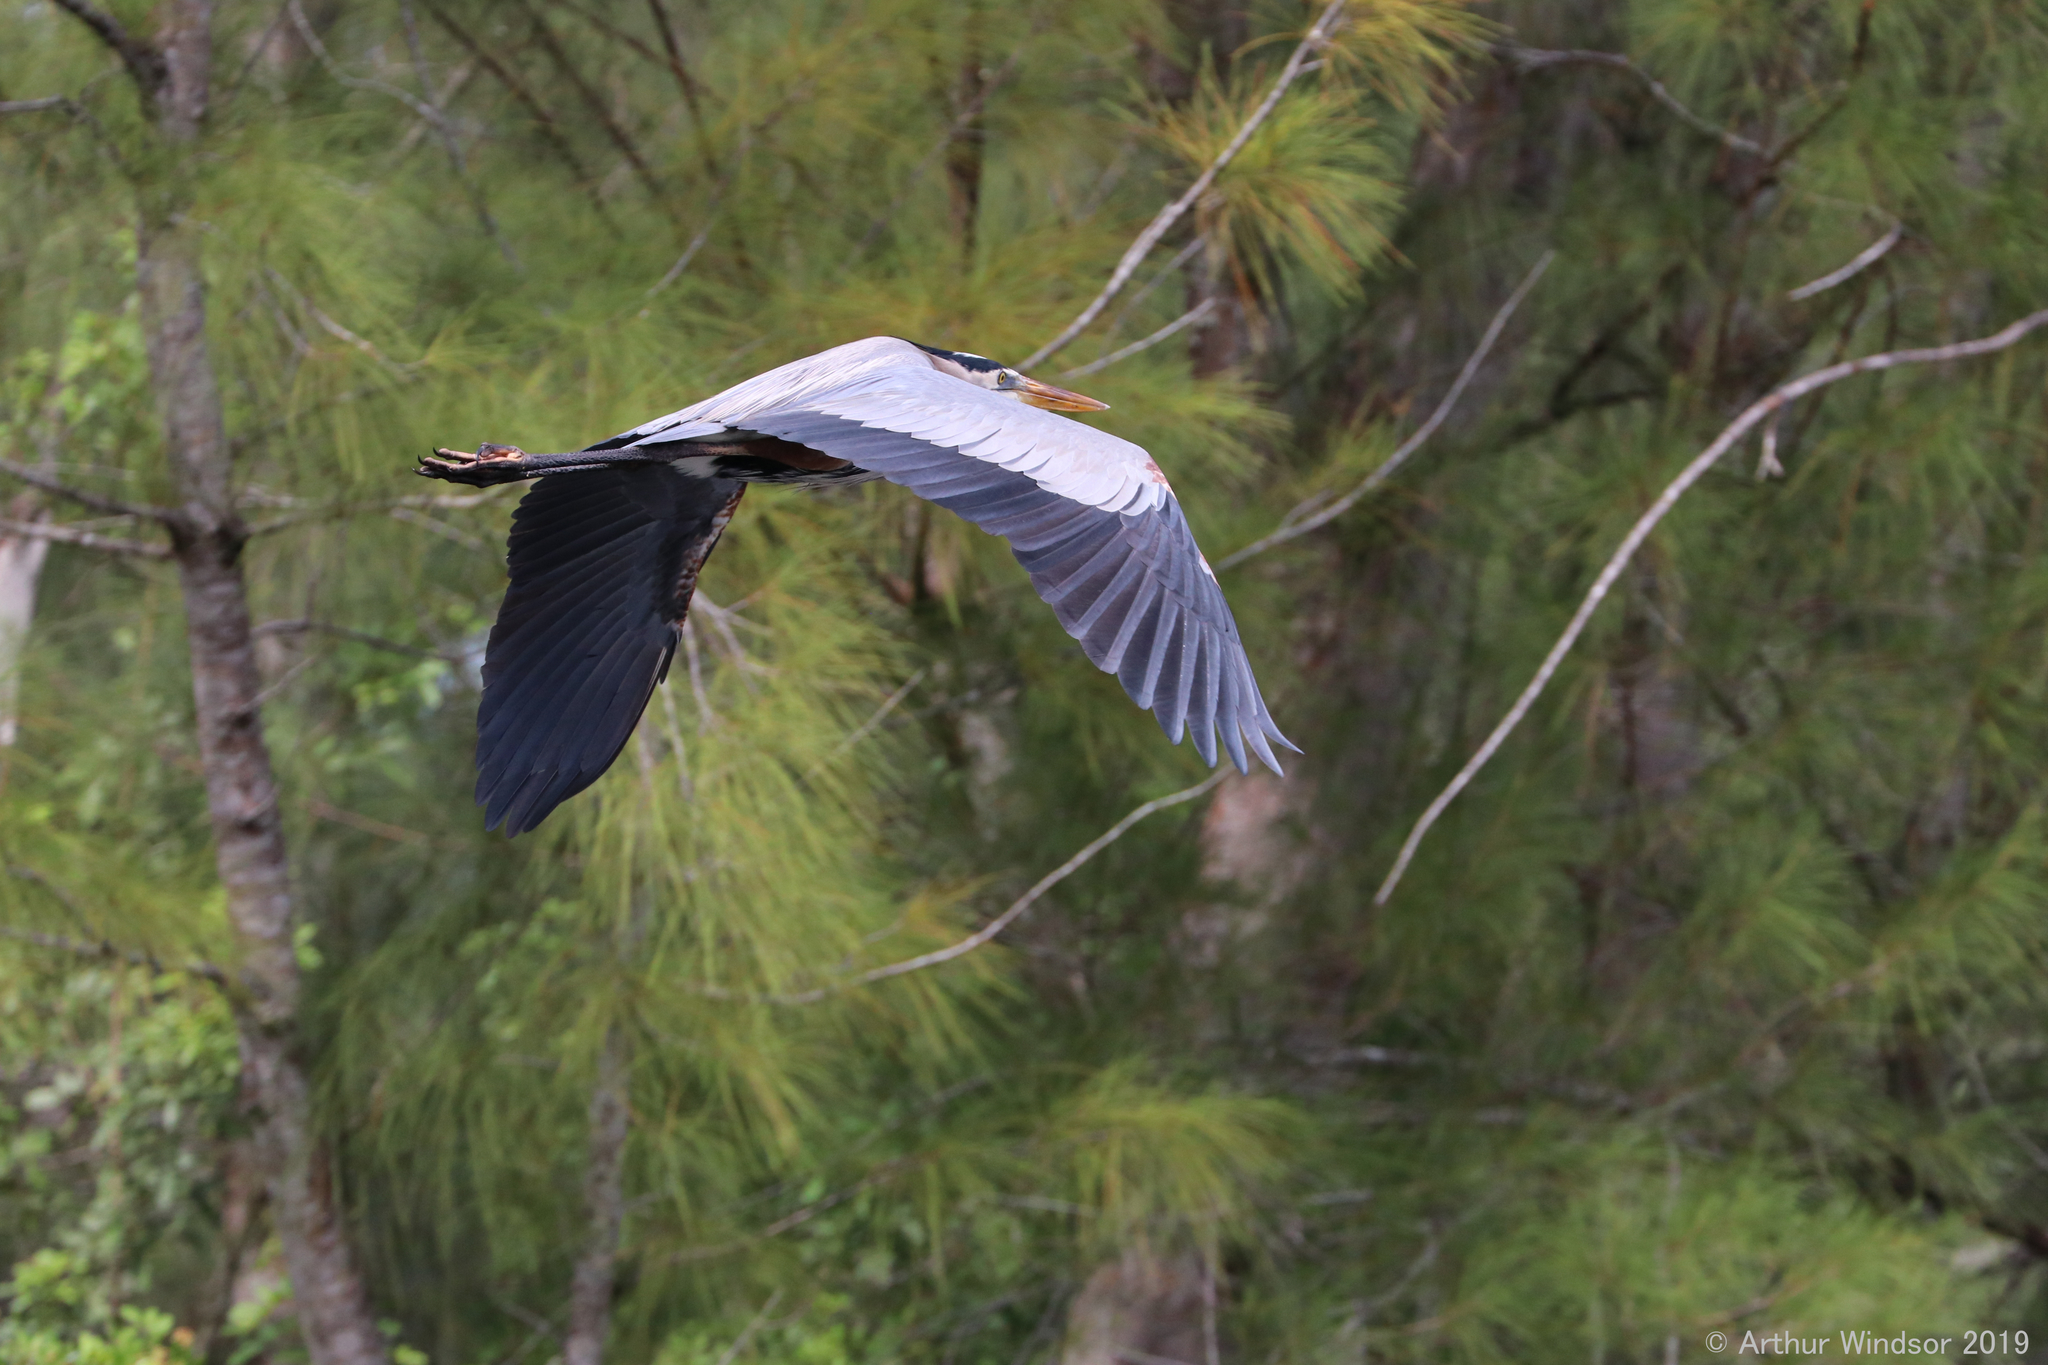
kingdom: Animalia
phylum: Chordata
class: Aves
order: Pelecaniformes
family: Ardeidae
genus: Ardea
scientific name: Ardea herodias
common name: Great blue heron
